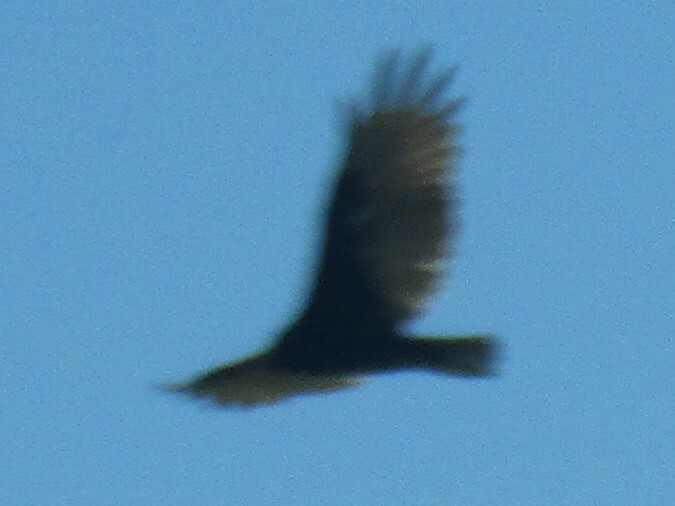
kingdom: Animalia
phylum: Chordata
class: Aves
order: Accipitriformes
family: Cathartidae
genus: Cathartes
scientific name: Cathartes aura
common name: Turkey vulture
